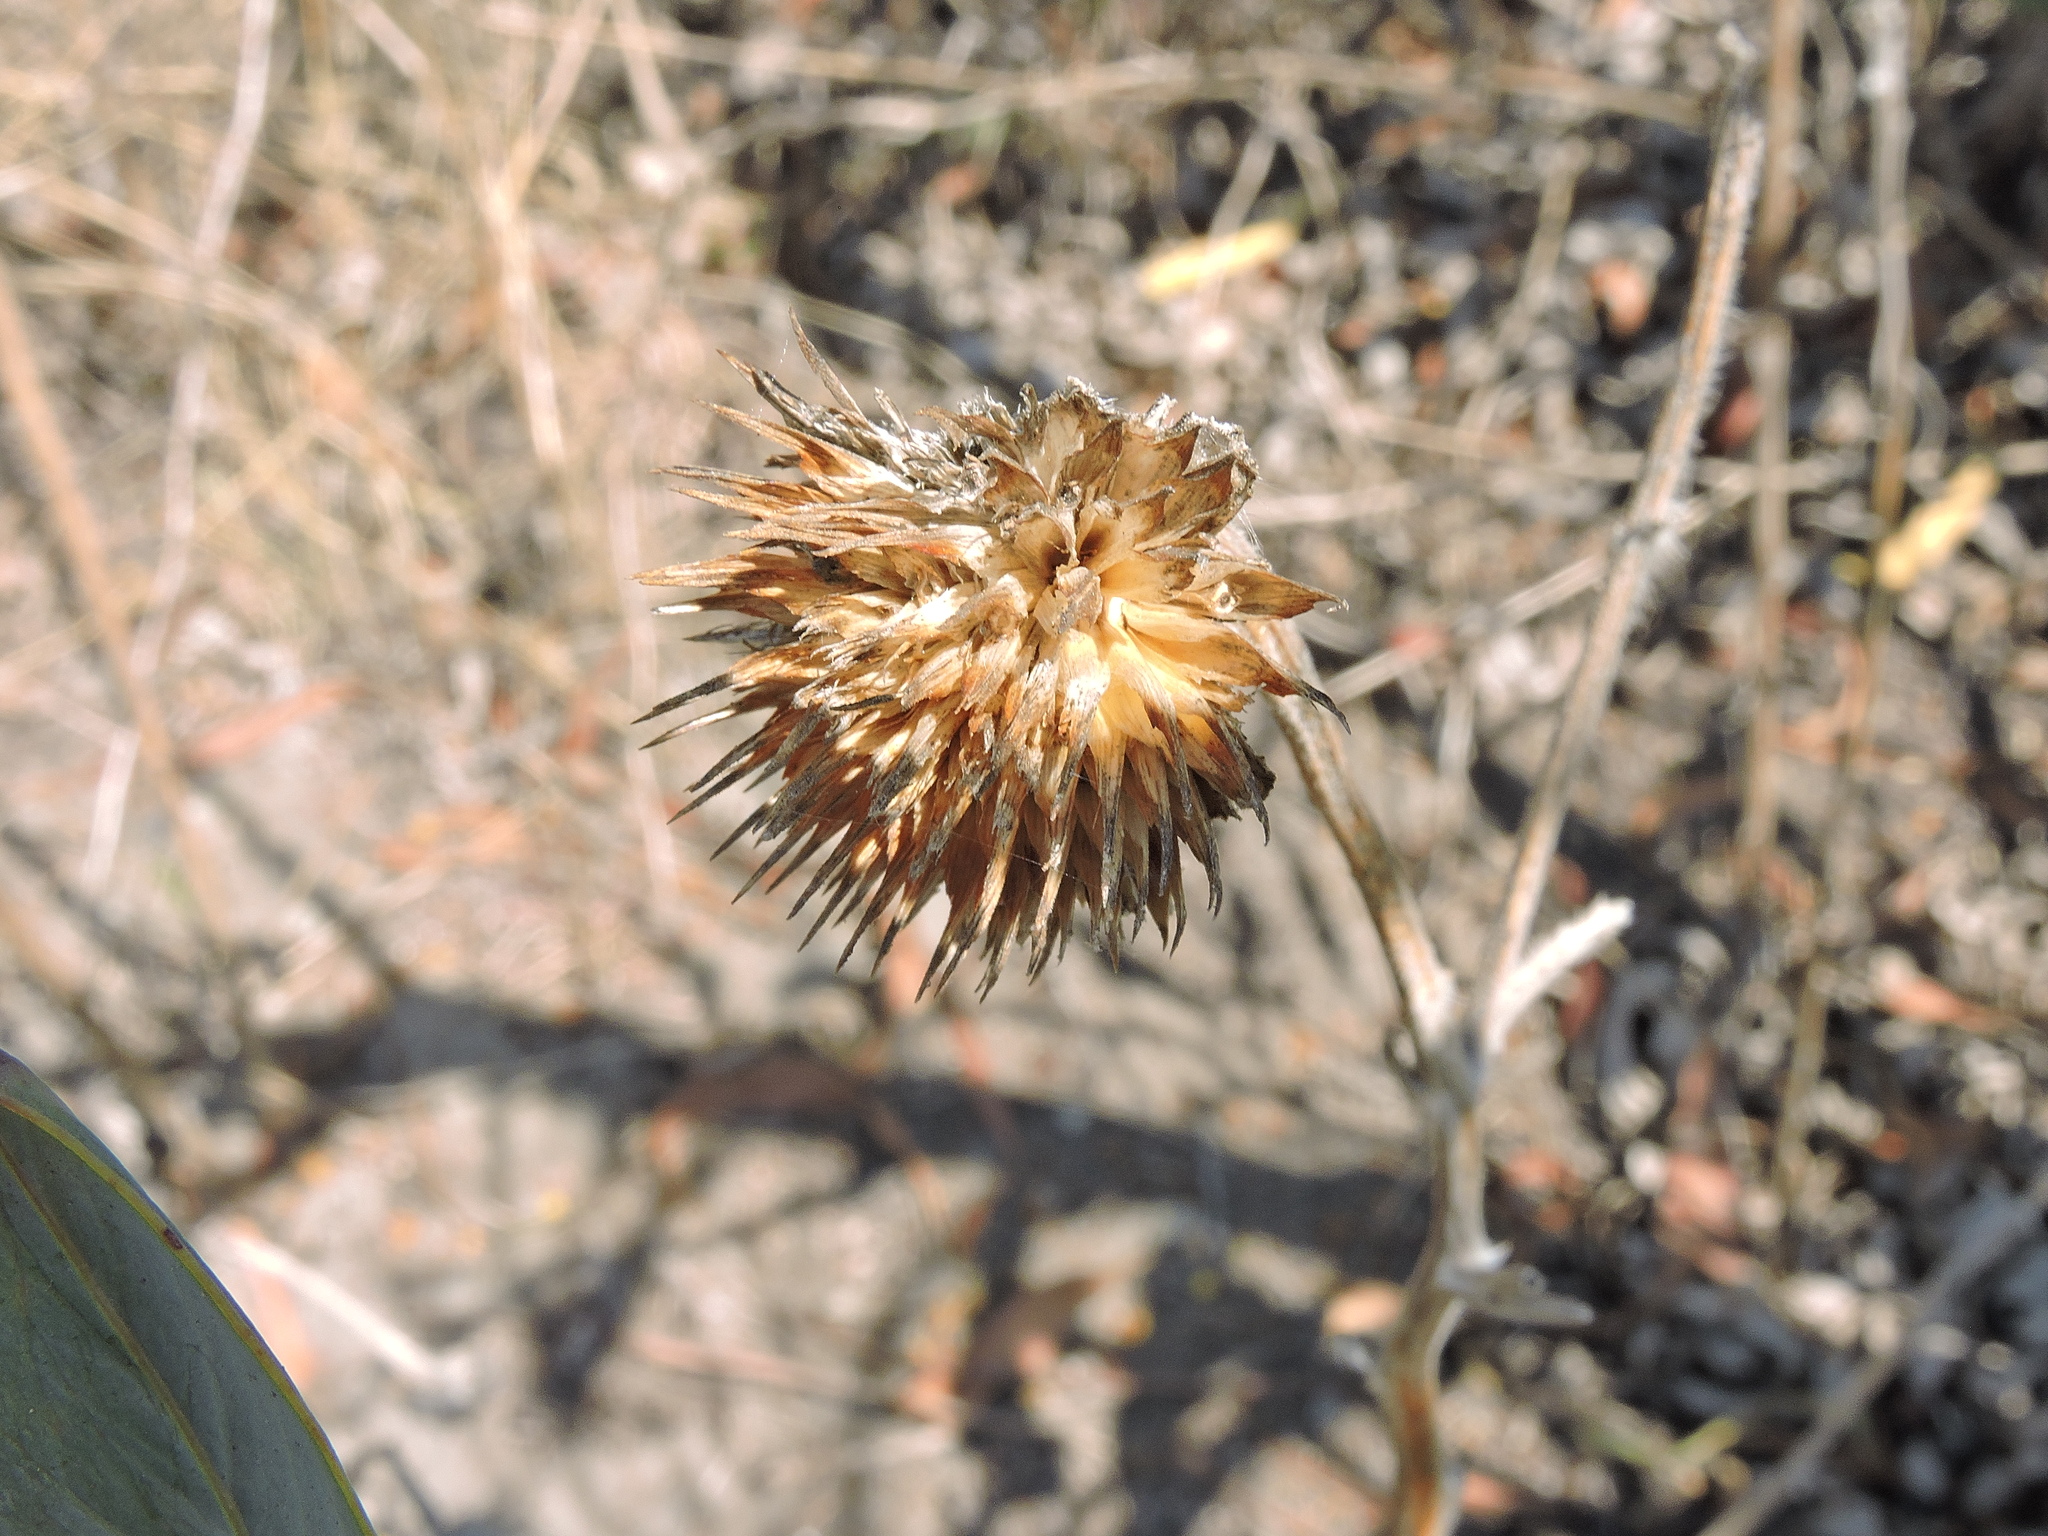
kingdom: Plantae
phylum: Tracheophyta
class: Magnoliopsida
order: Lamiales
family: Lamiaceae
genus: Leonotis
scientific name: Leonotis nepetifolia
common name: Christmas candlestick
